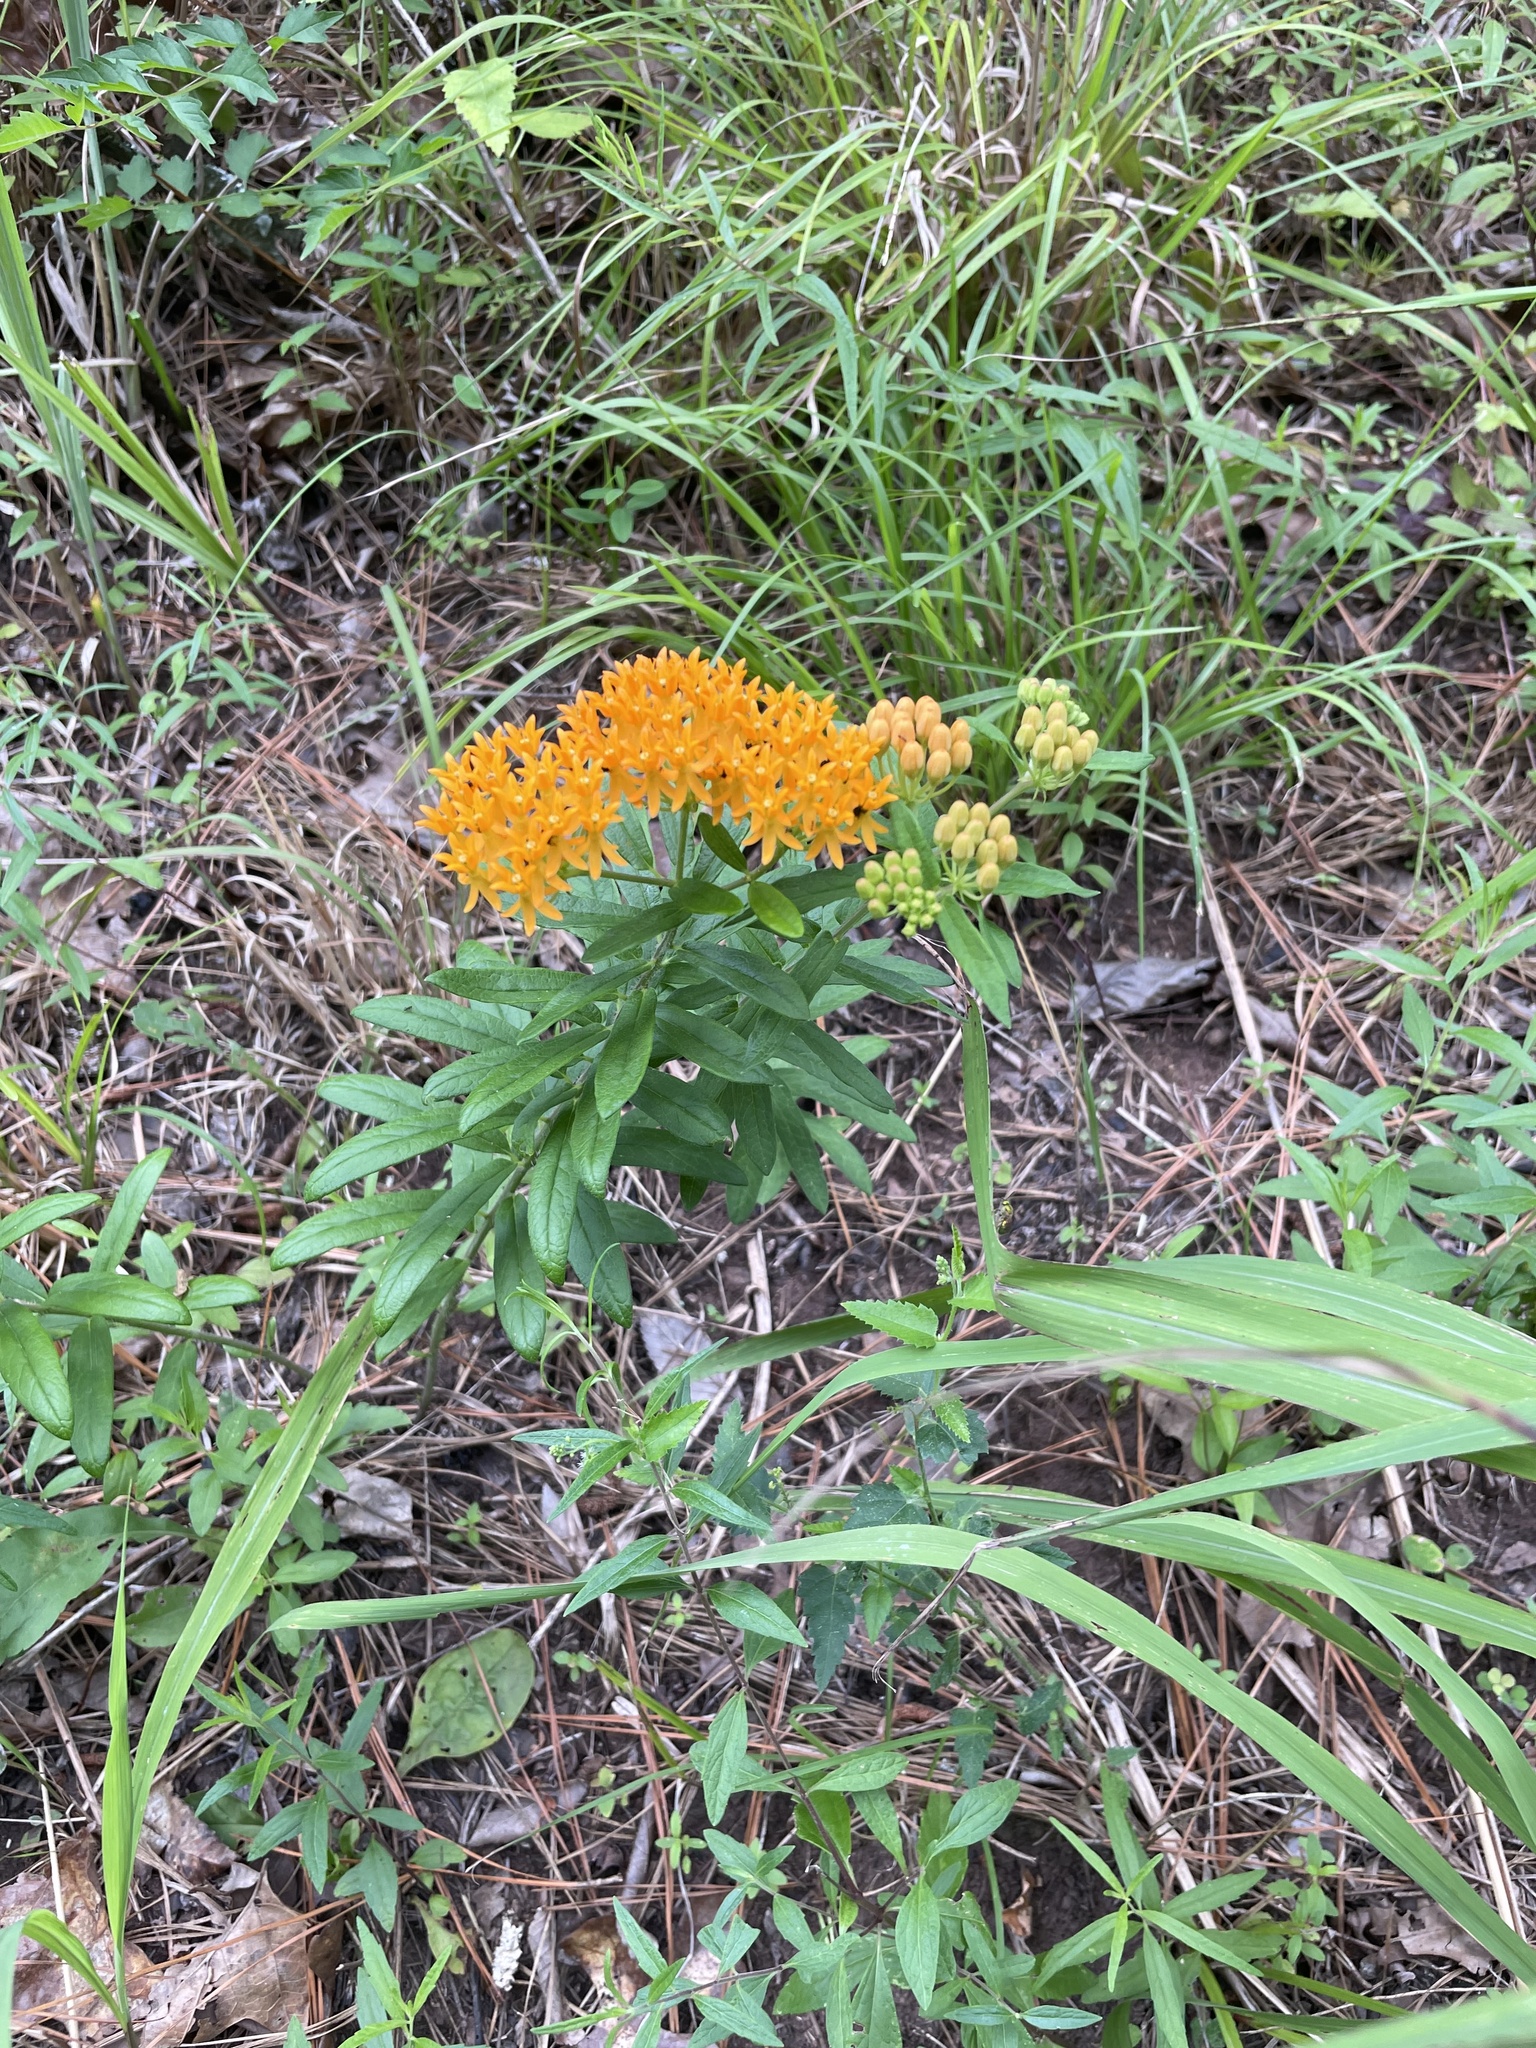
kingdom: Plantae
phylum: Tracheophyta
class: Magnoliopsida
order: Gentianales
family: Apocynaceae
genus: Asclepias
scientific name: Asclepias tuberosa
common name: Butterfly milkweed
